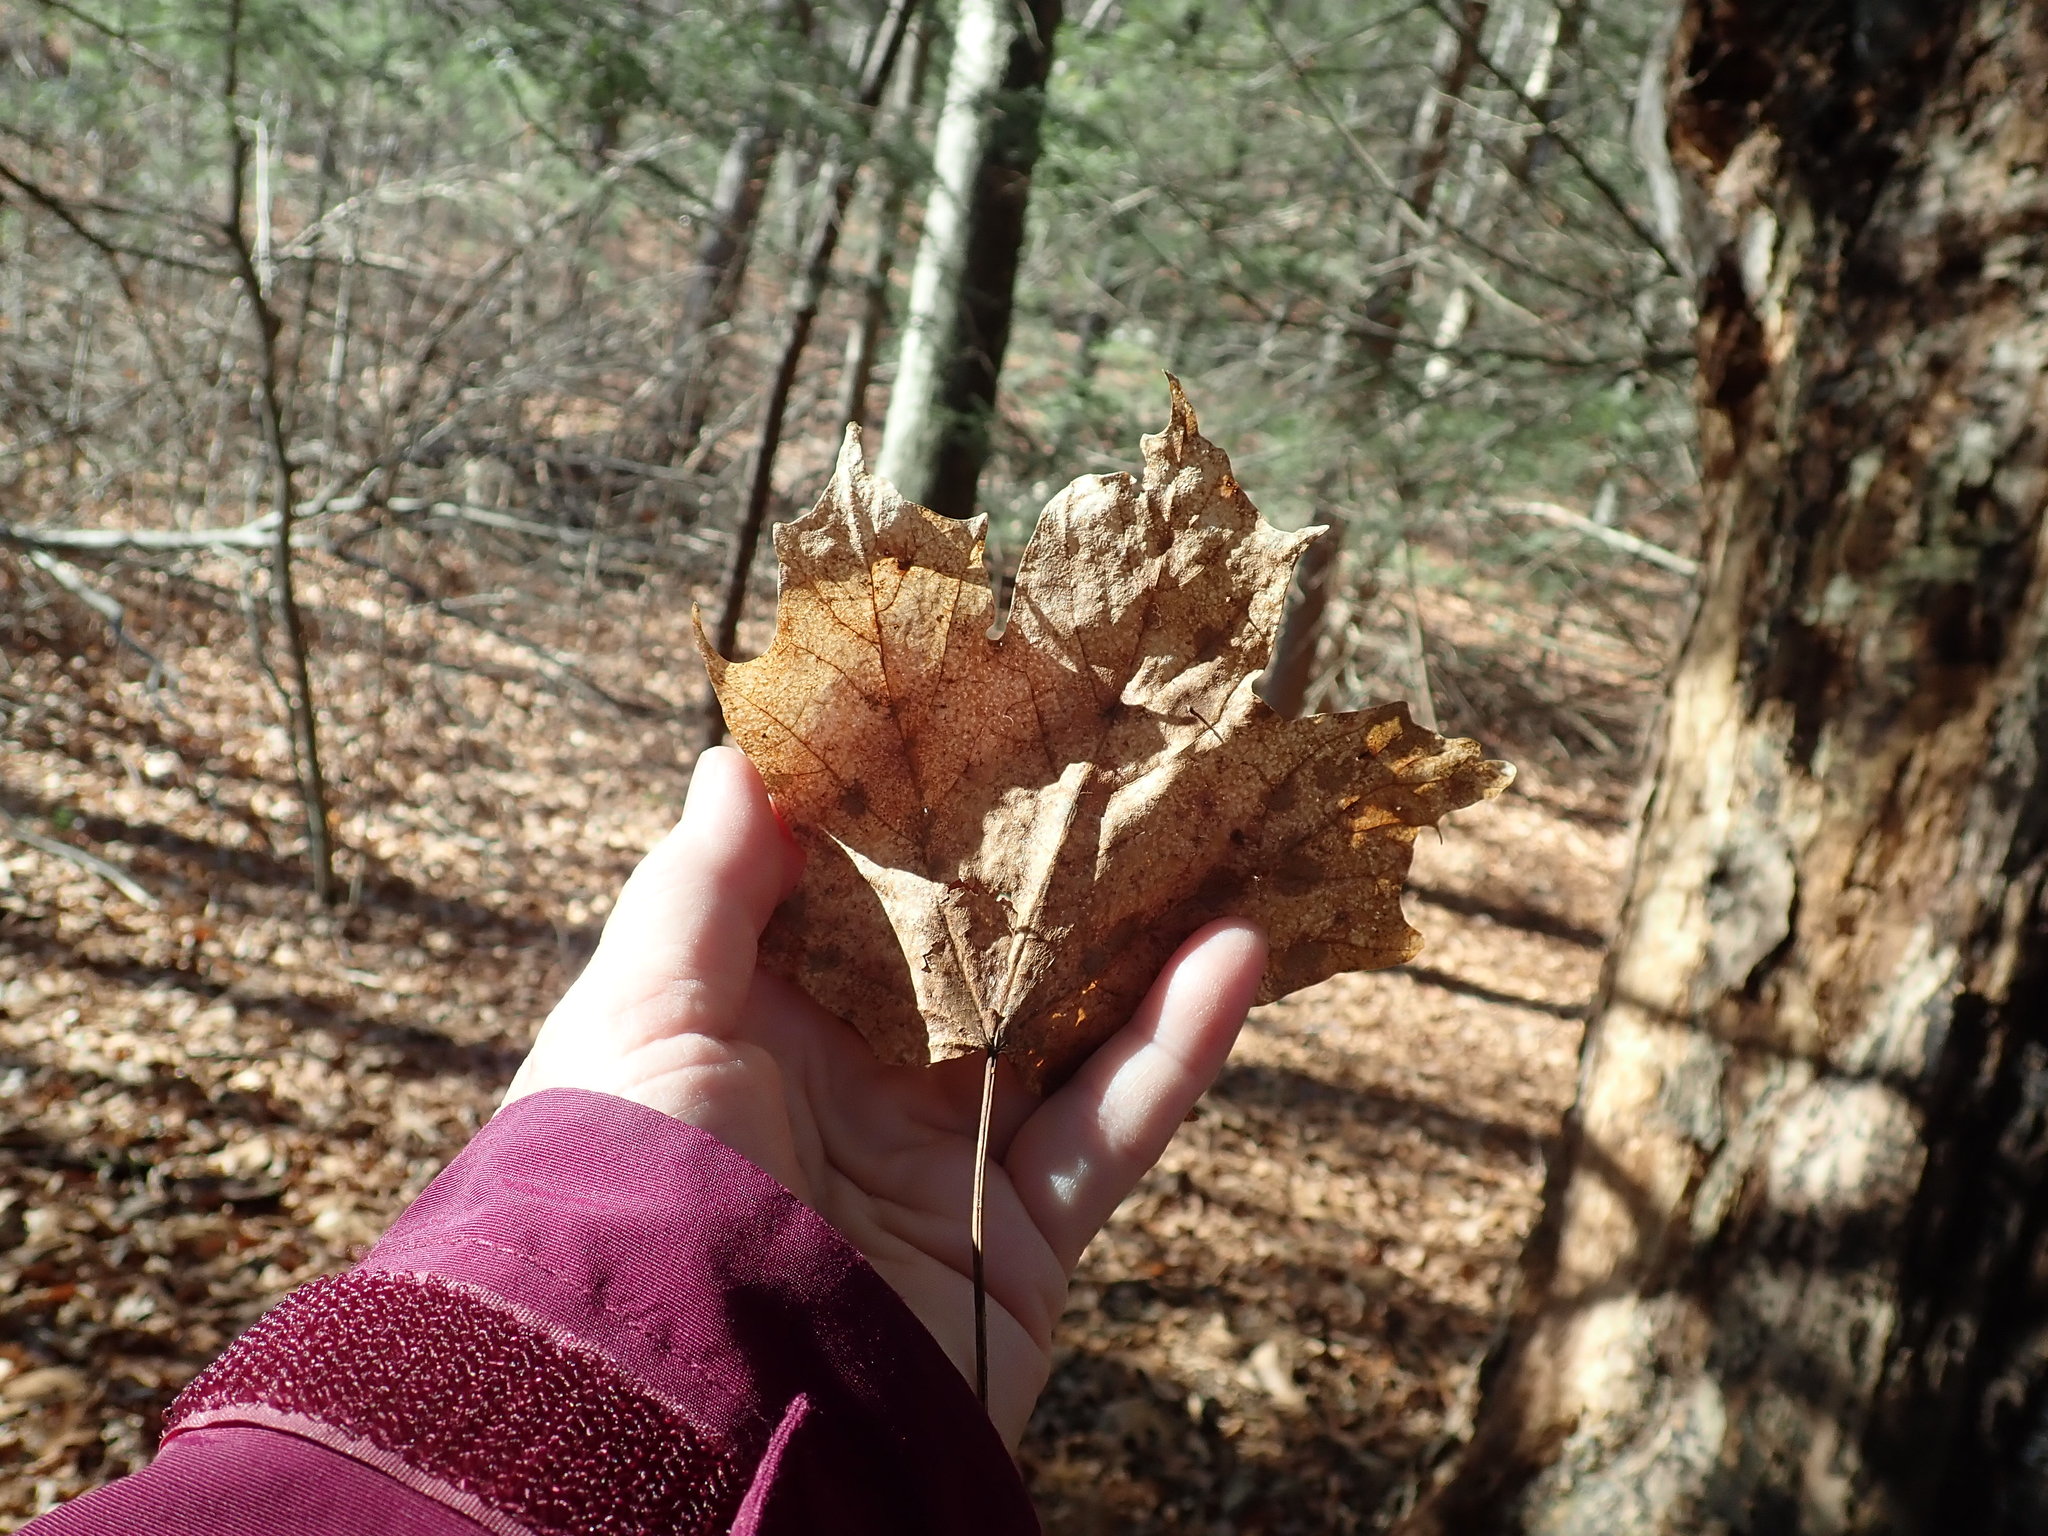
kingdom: Plantae
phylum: Tracheophyta
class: Magnoliopsida
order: Sapindales
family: Sapindaceae
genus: Acer
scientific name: Acer saccharum
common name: Sugar maple
